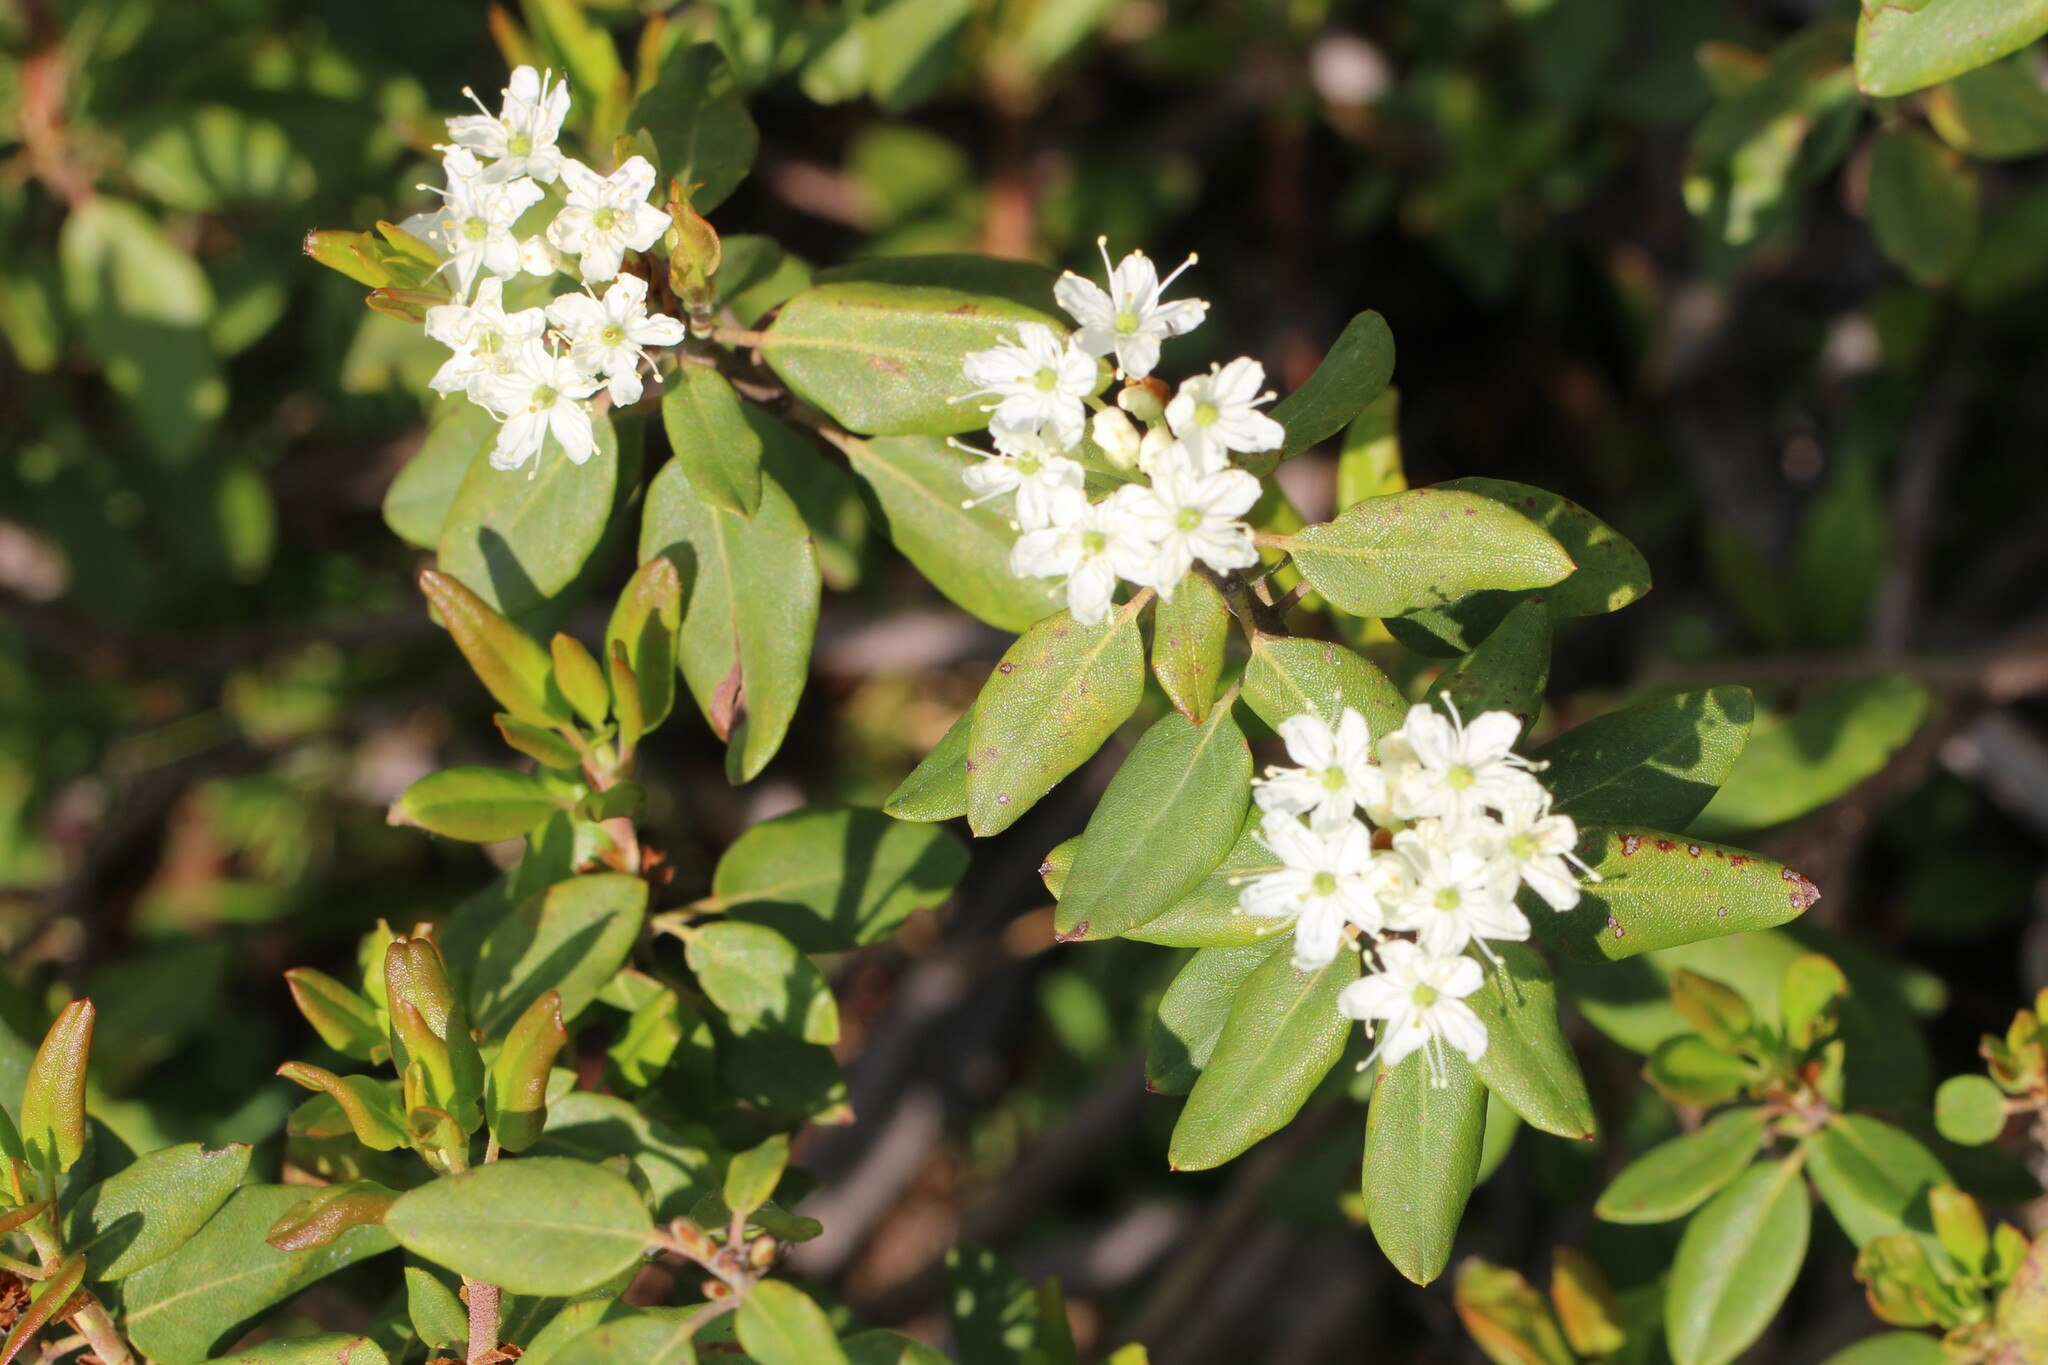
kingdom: Plantae
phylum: Tracheophyta
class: Magnoliopsida
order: Ericales
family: Ericaceae
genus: Rhododendron
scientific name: Rhododendron columbianum
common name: Western labrador tea
